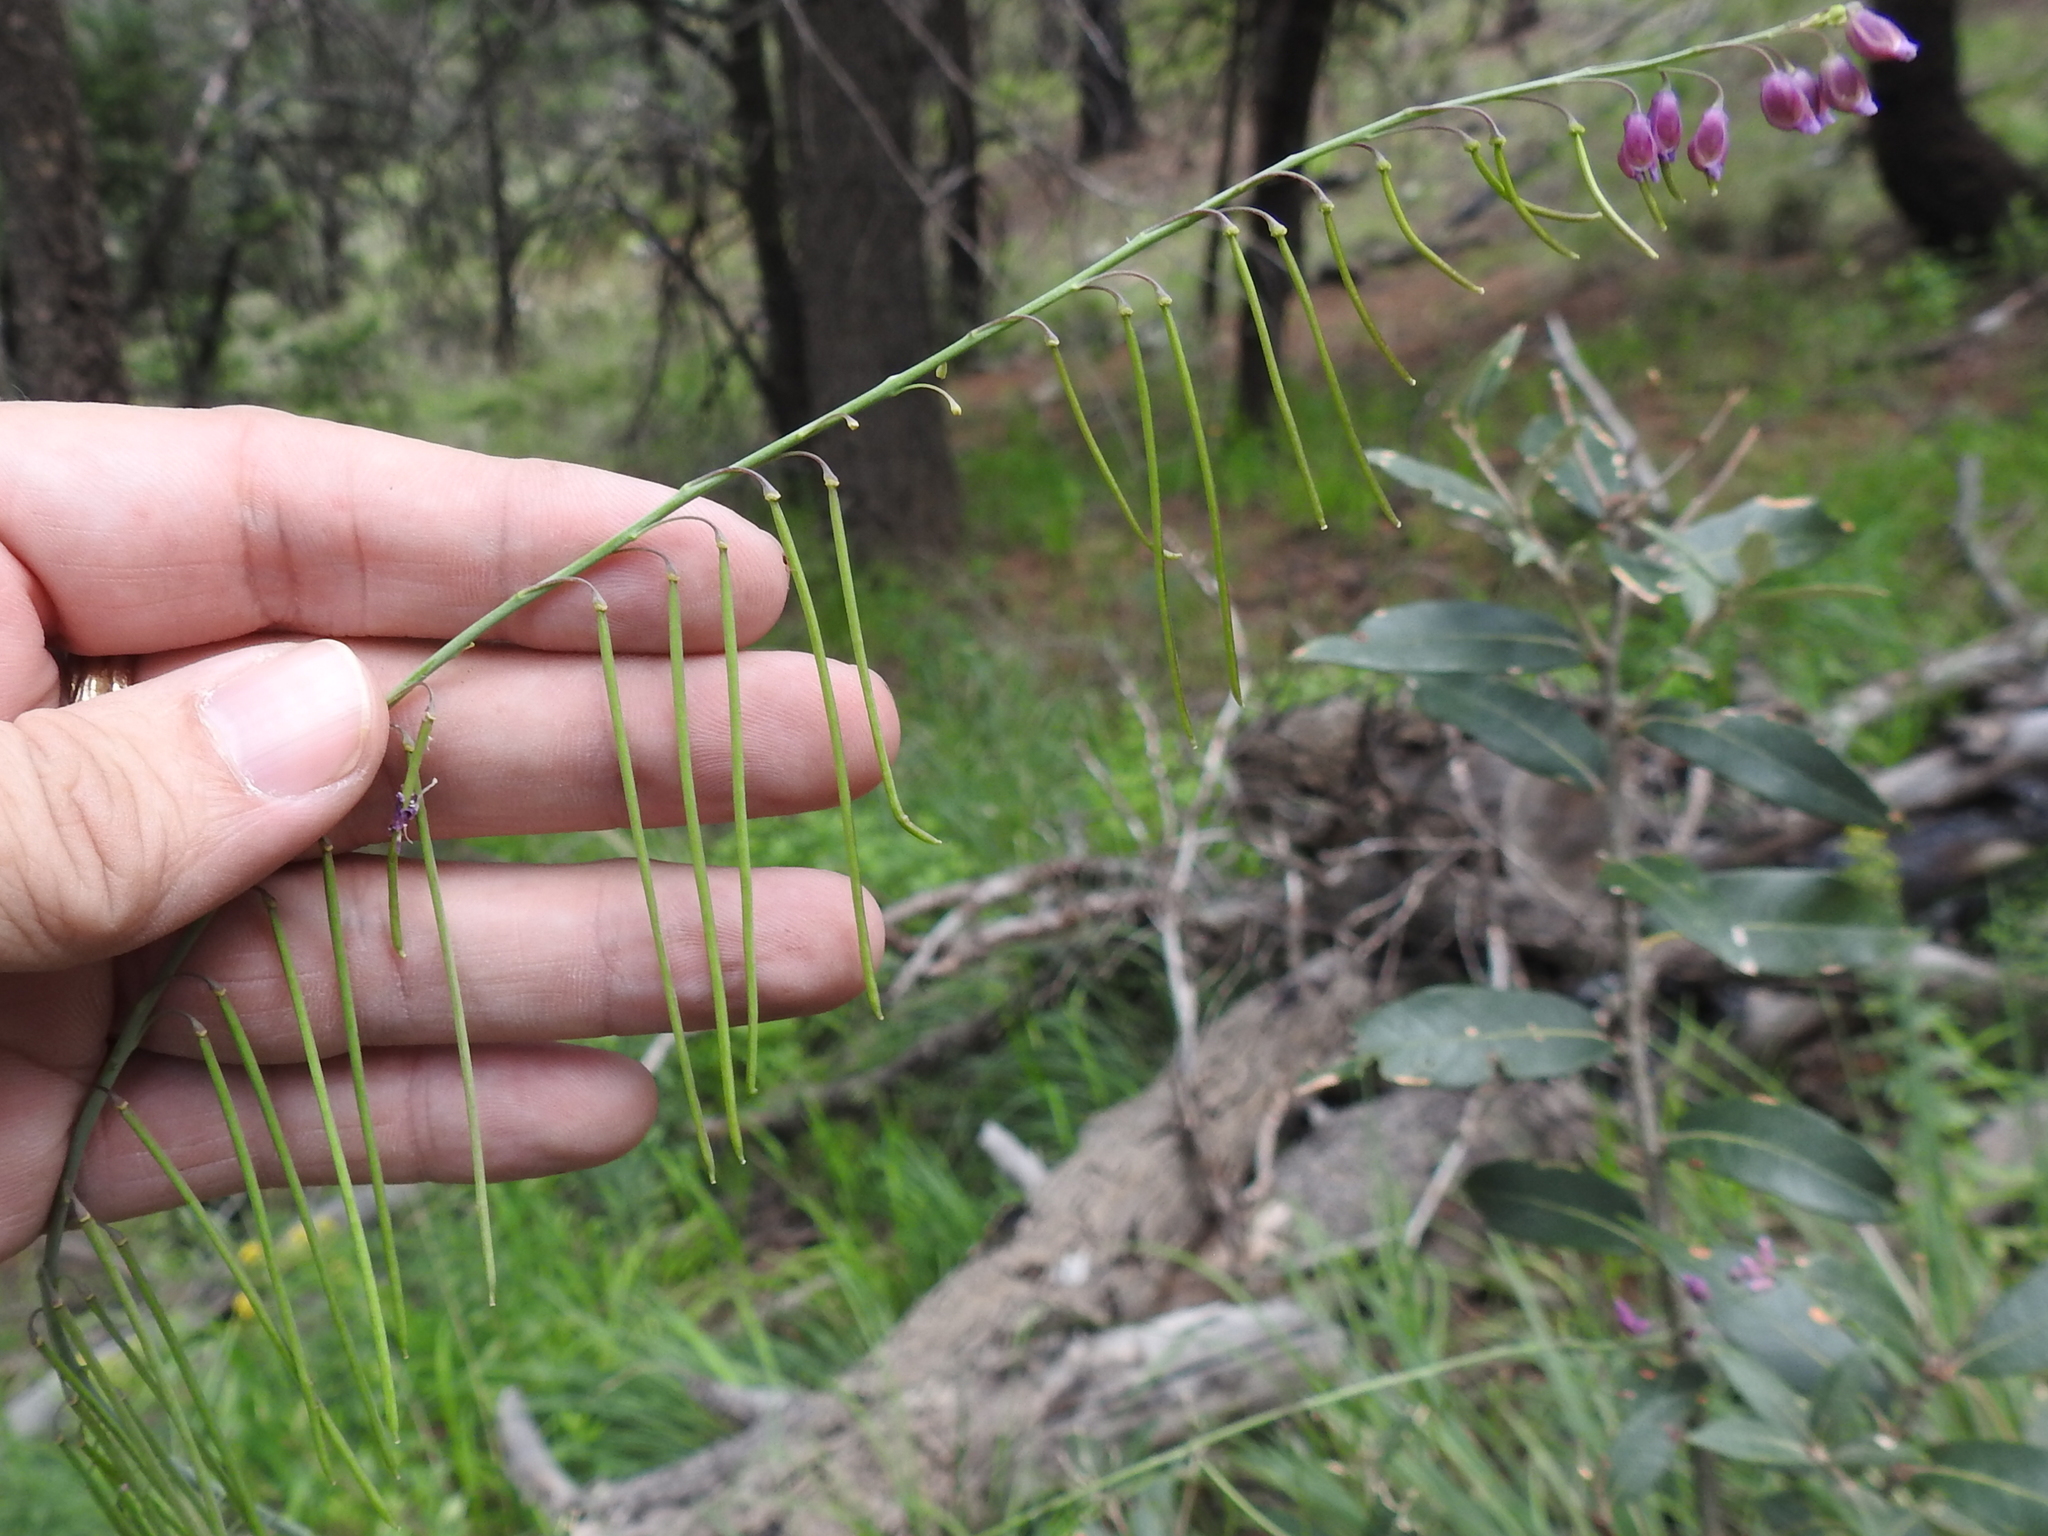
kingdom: Plantae
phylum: Tracheophyta
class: Magnoliopsida
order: Brassicales
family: Brassicaceae
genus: Pennellia
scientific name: Pennellia longifolia
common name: Longleaf mock thelypody
